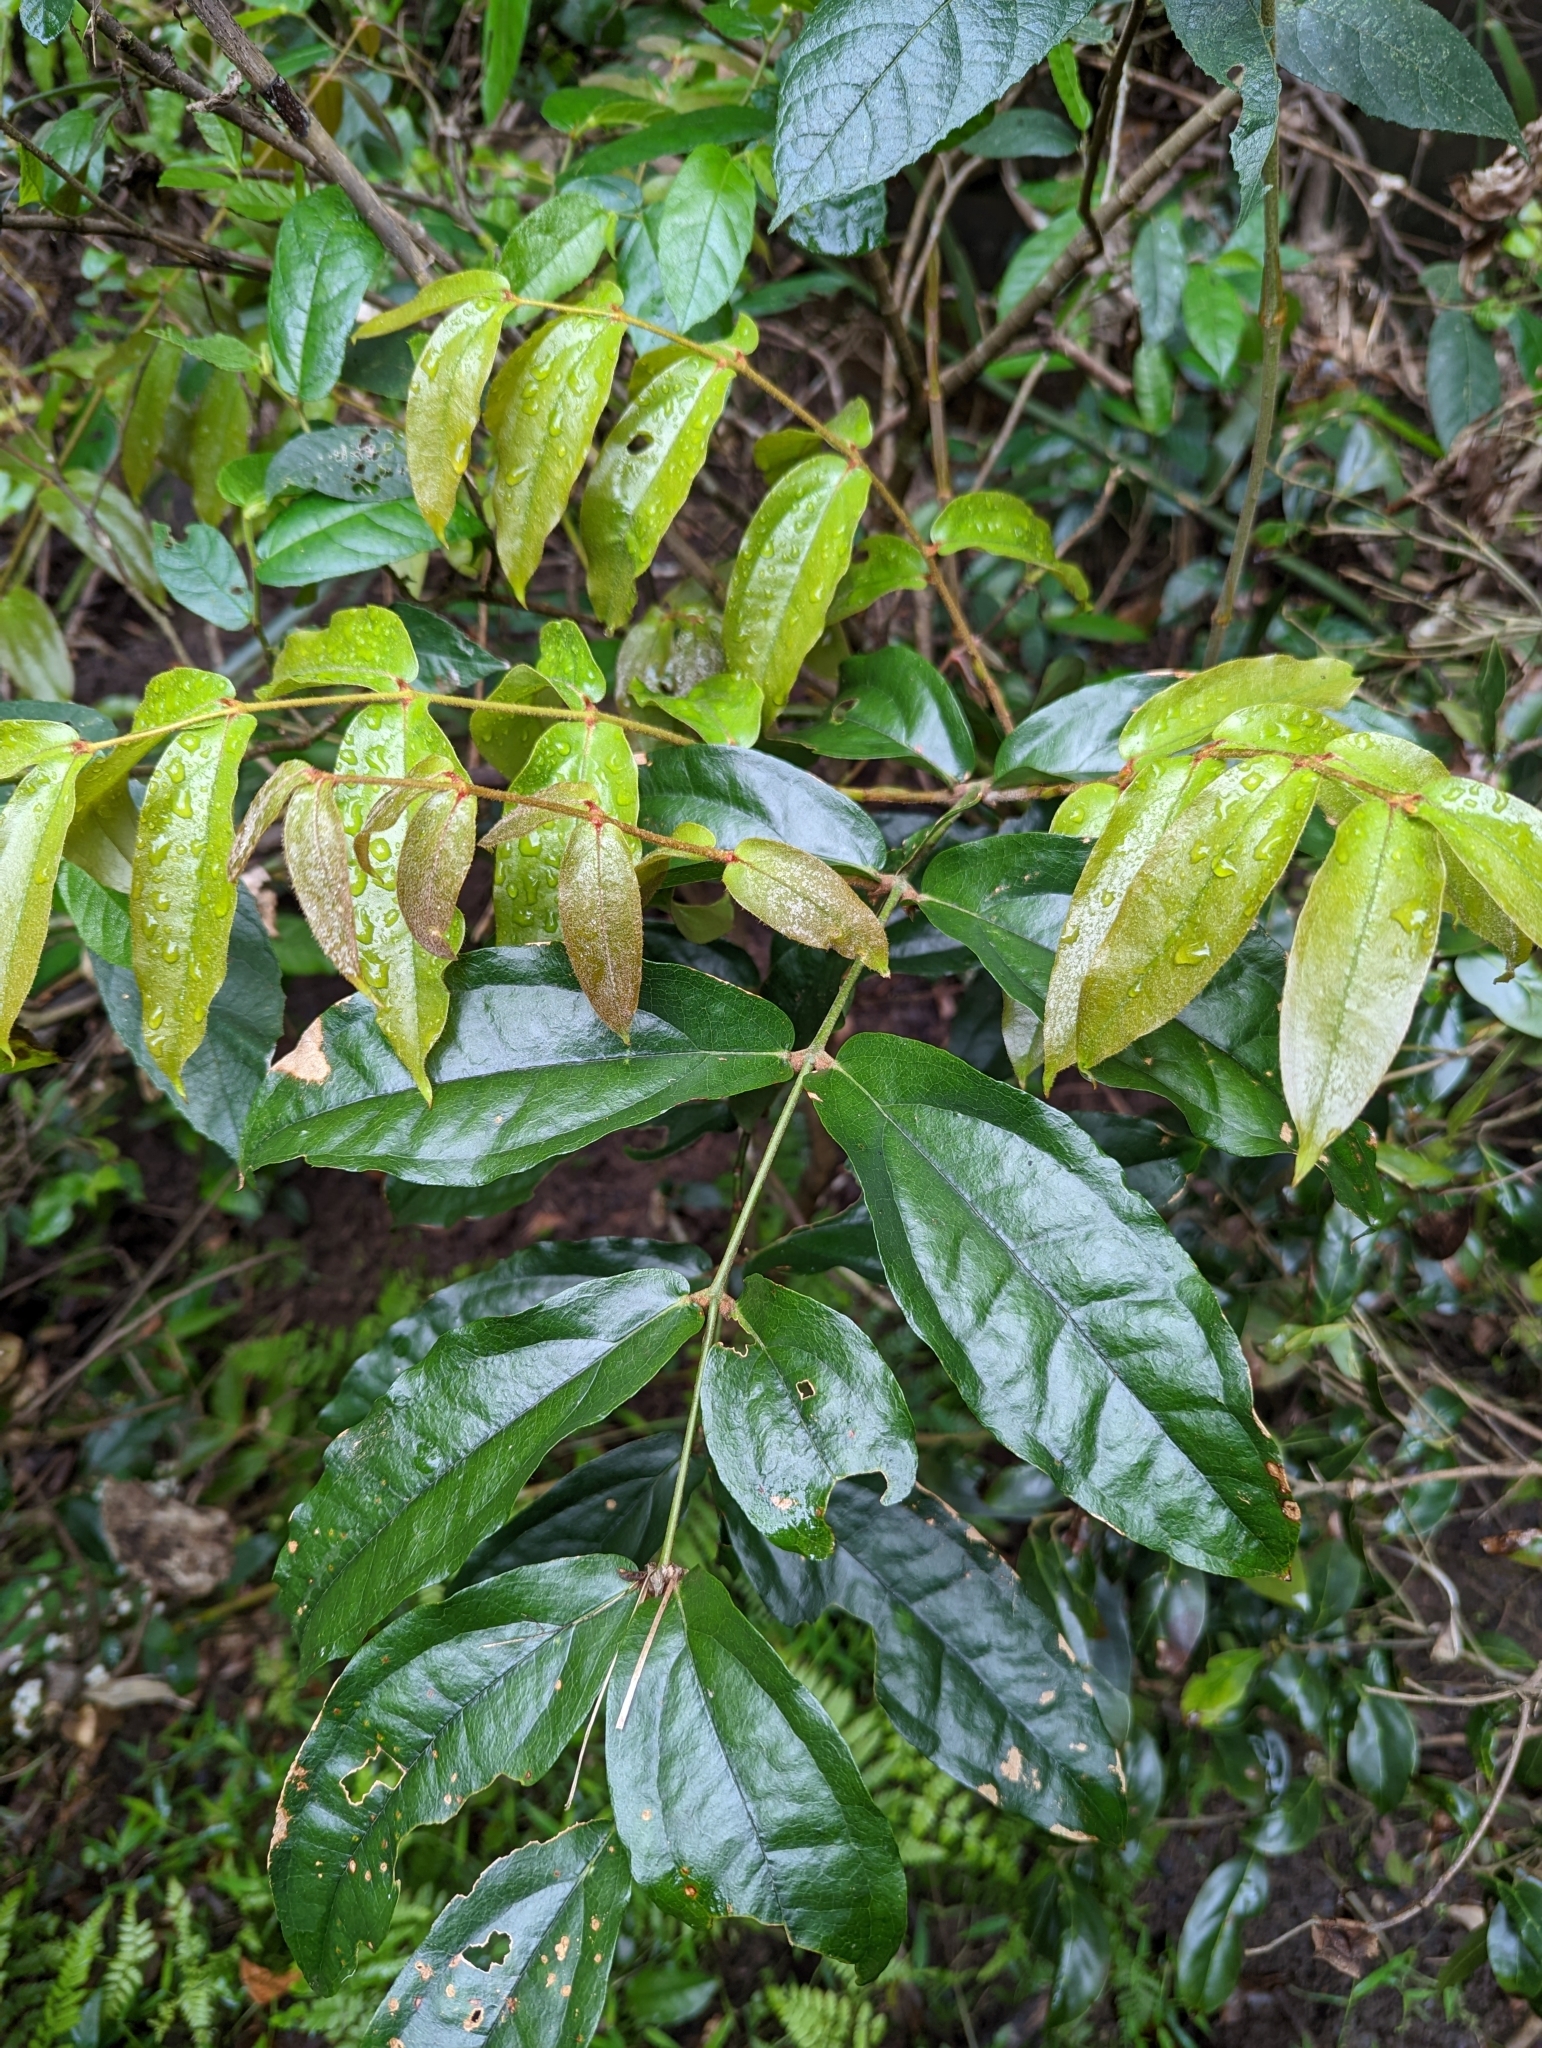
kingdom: Plantae
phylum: Tracheophyta
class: Liliopsida
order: Liliales
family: Ripogonaceae
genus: Ripogonum
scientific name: Ripogonum elseyanum
